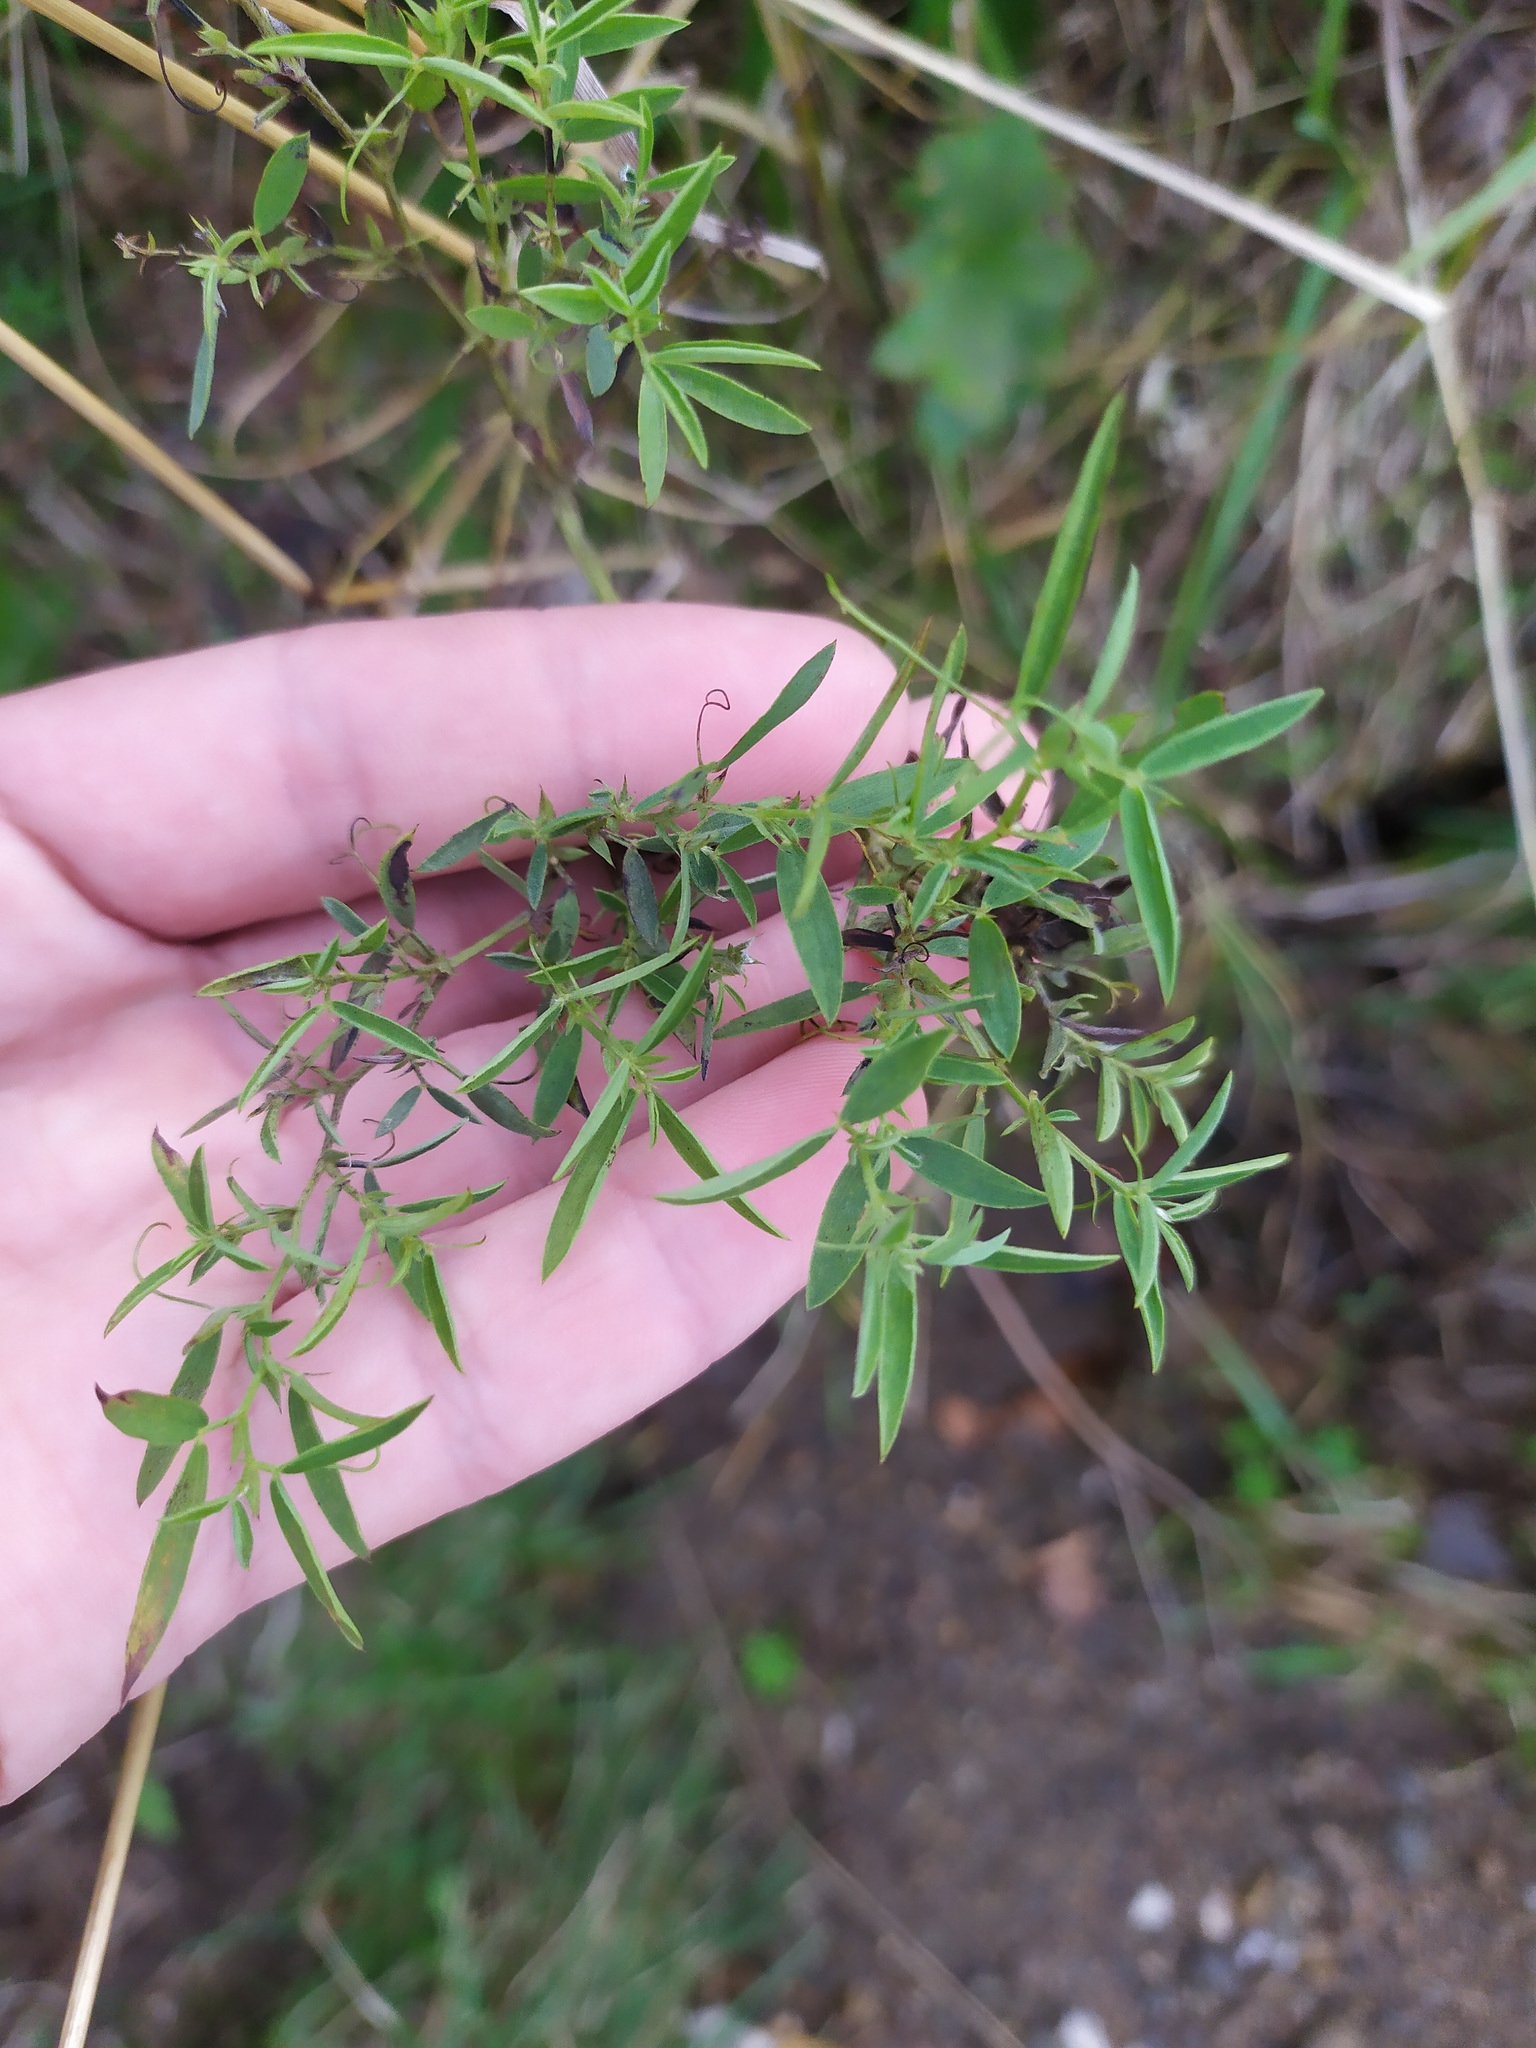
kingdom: Plantae
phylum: Tracheophyta
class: Magnoliopsida
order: Fabales
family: Fabaceae
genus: Lathyrus
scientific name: Lathyrus pratensis
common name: Meadow vetchling
